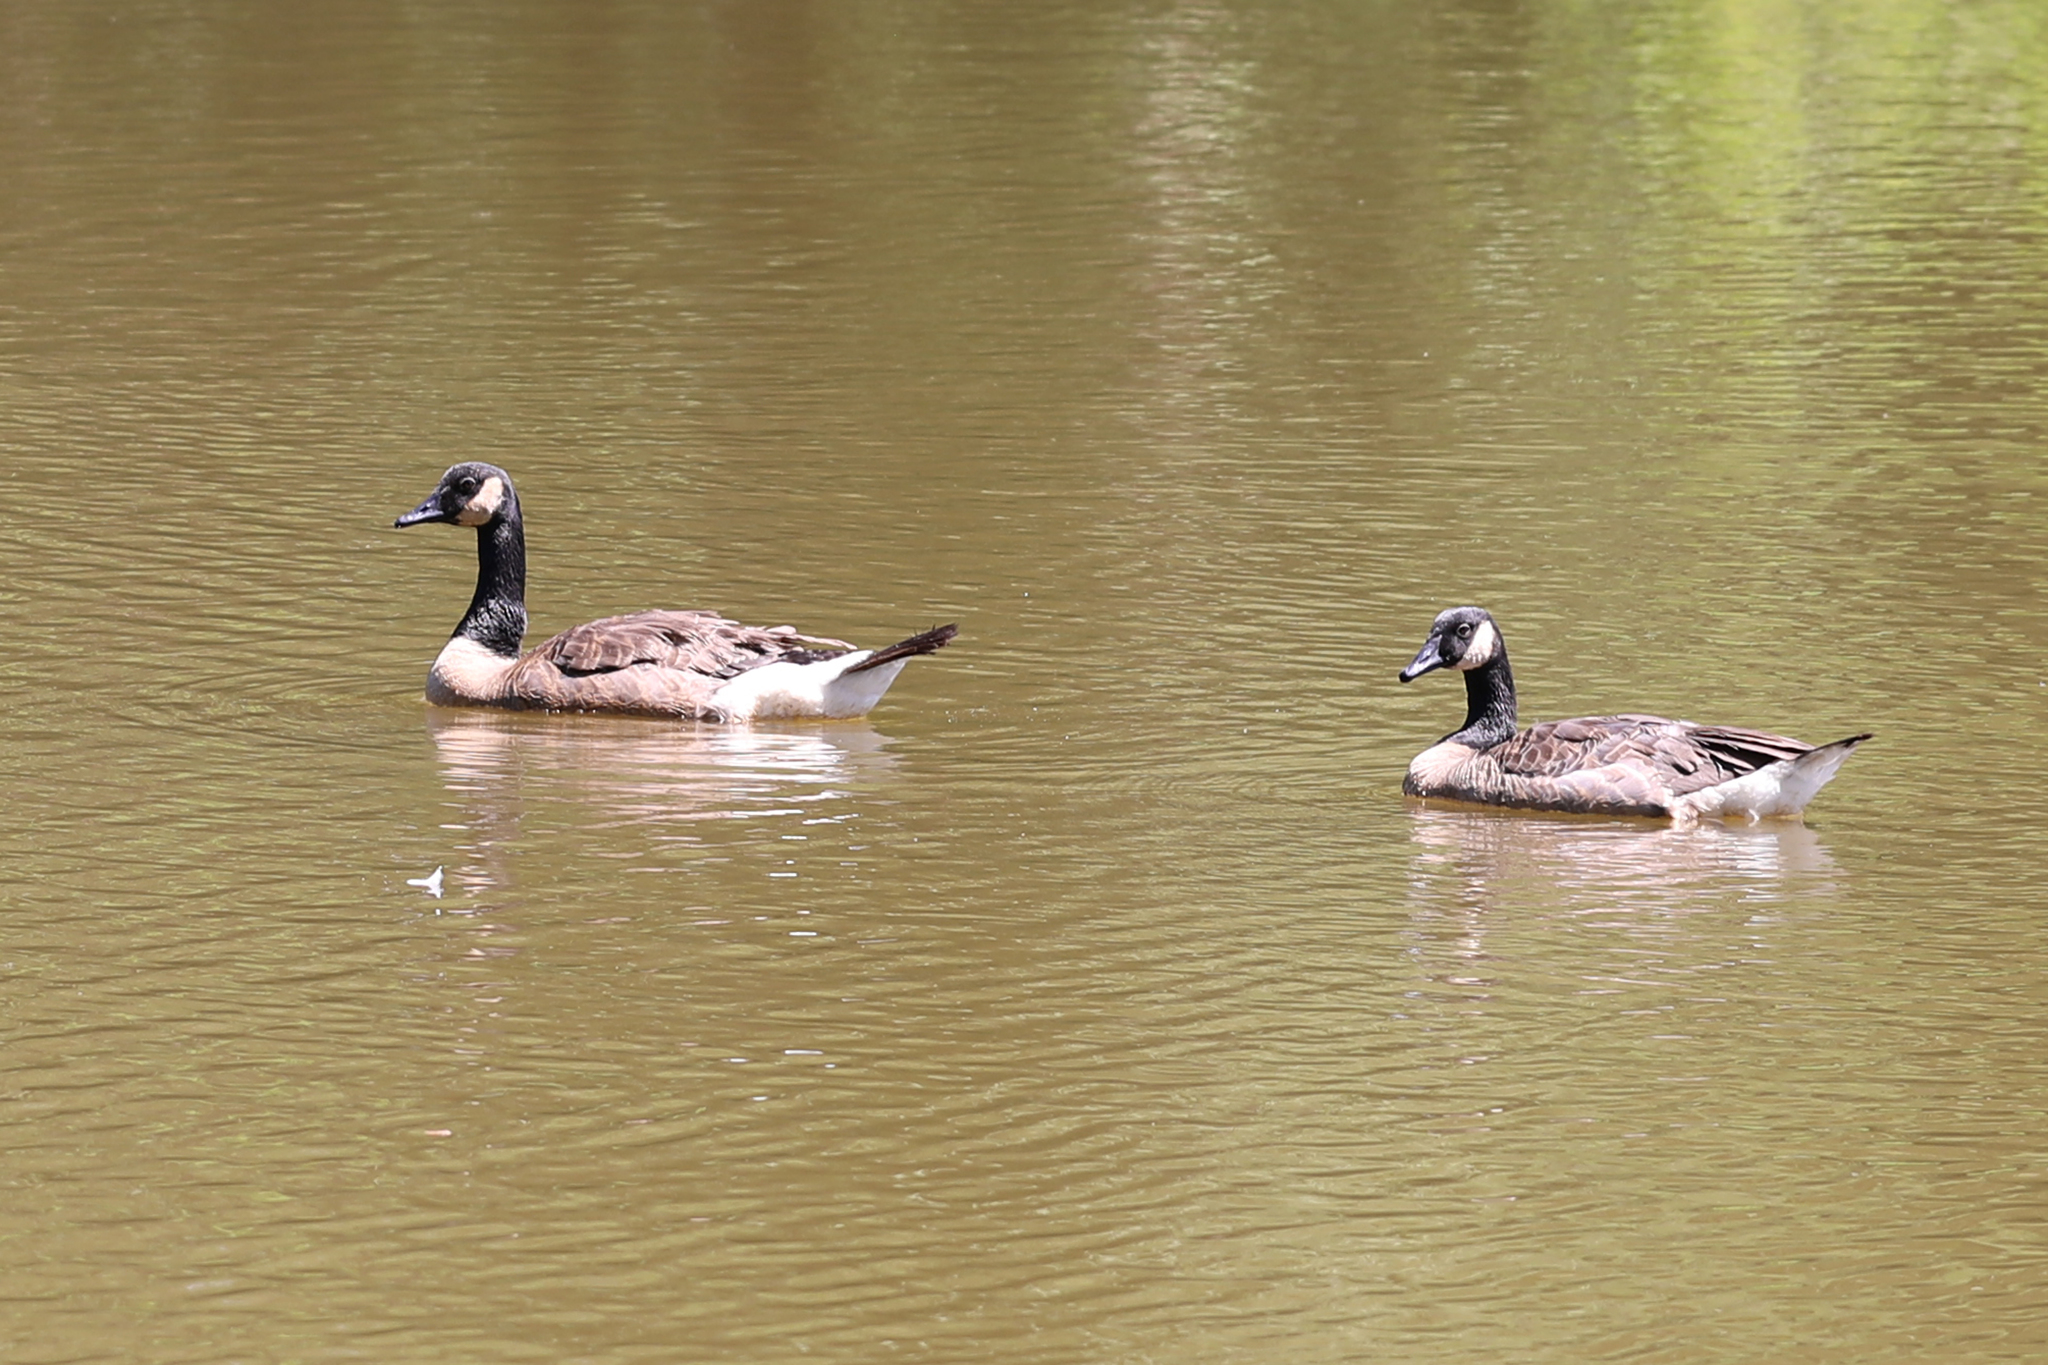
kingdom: Animalia
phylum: Chordata
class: Aves
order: Anseriformes
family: Anatidae
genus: Branta
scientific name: Branta canadensis
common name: Canada goose
